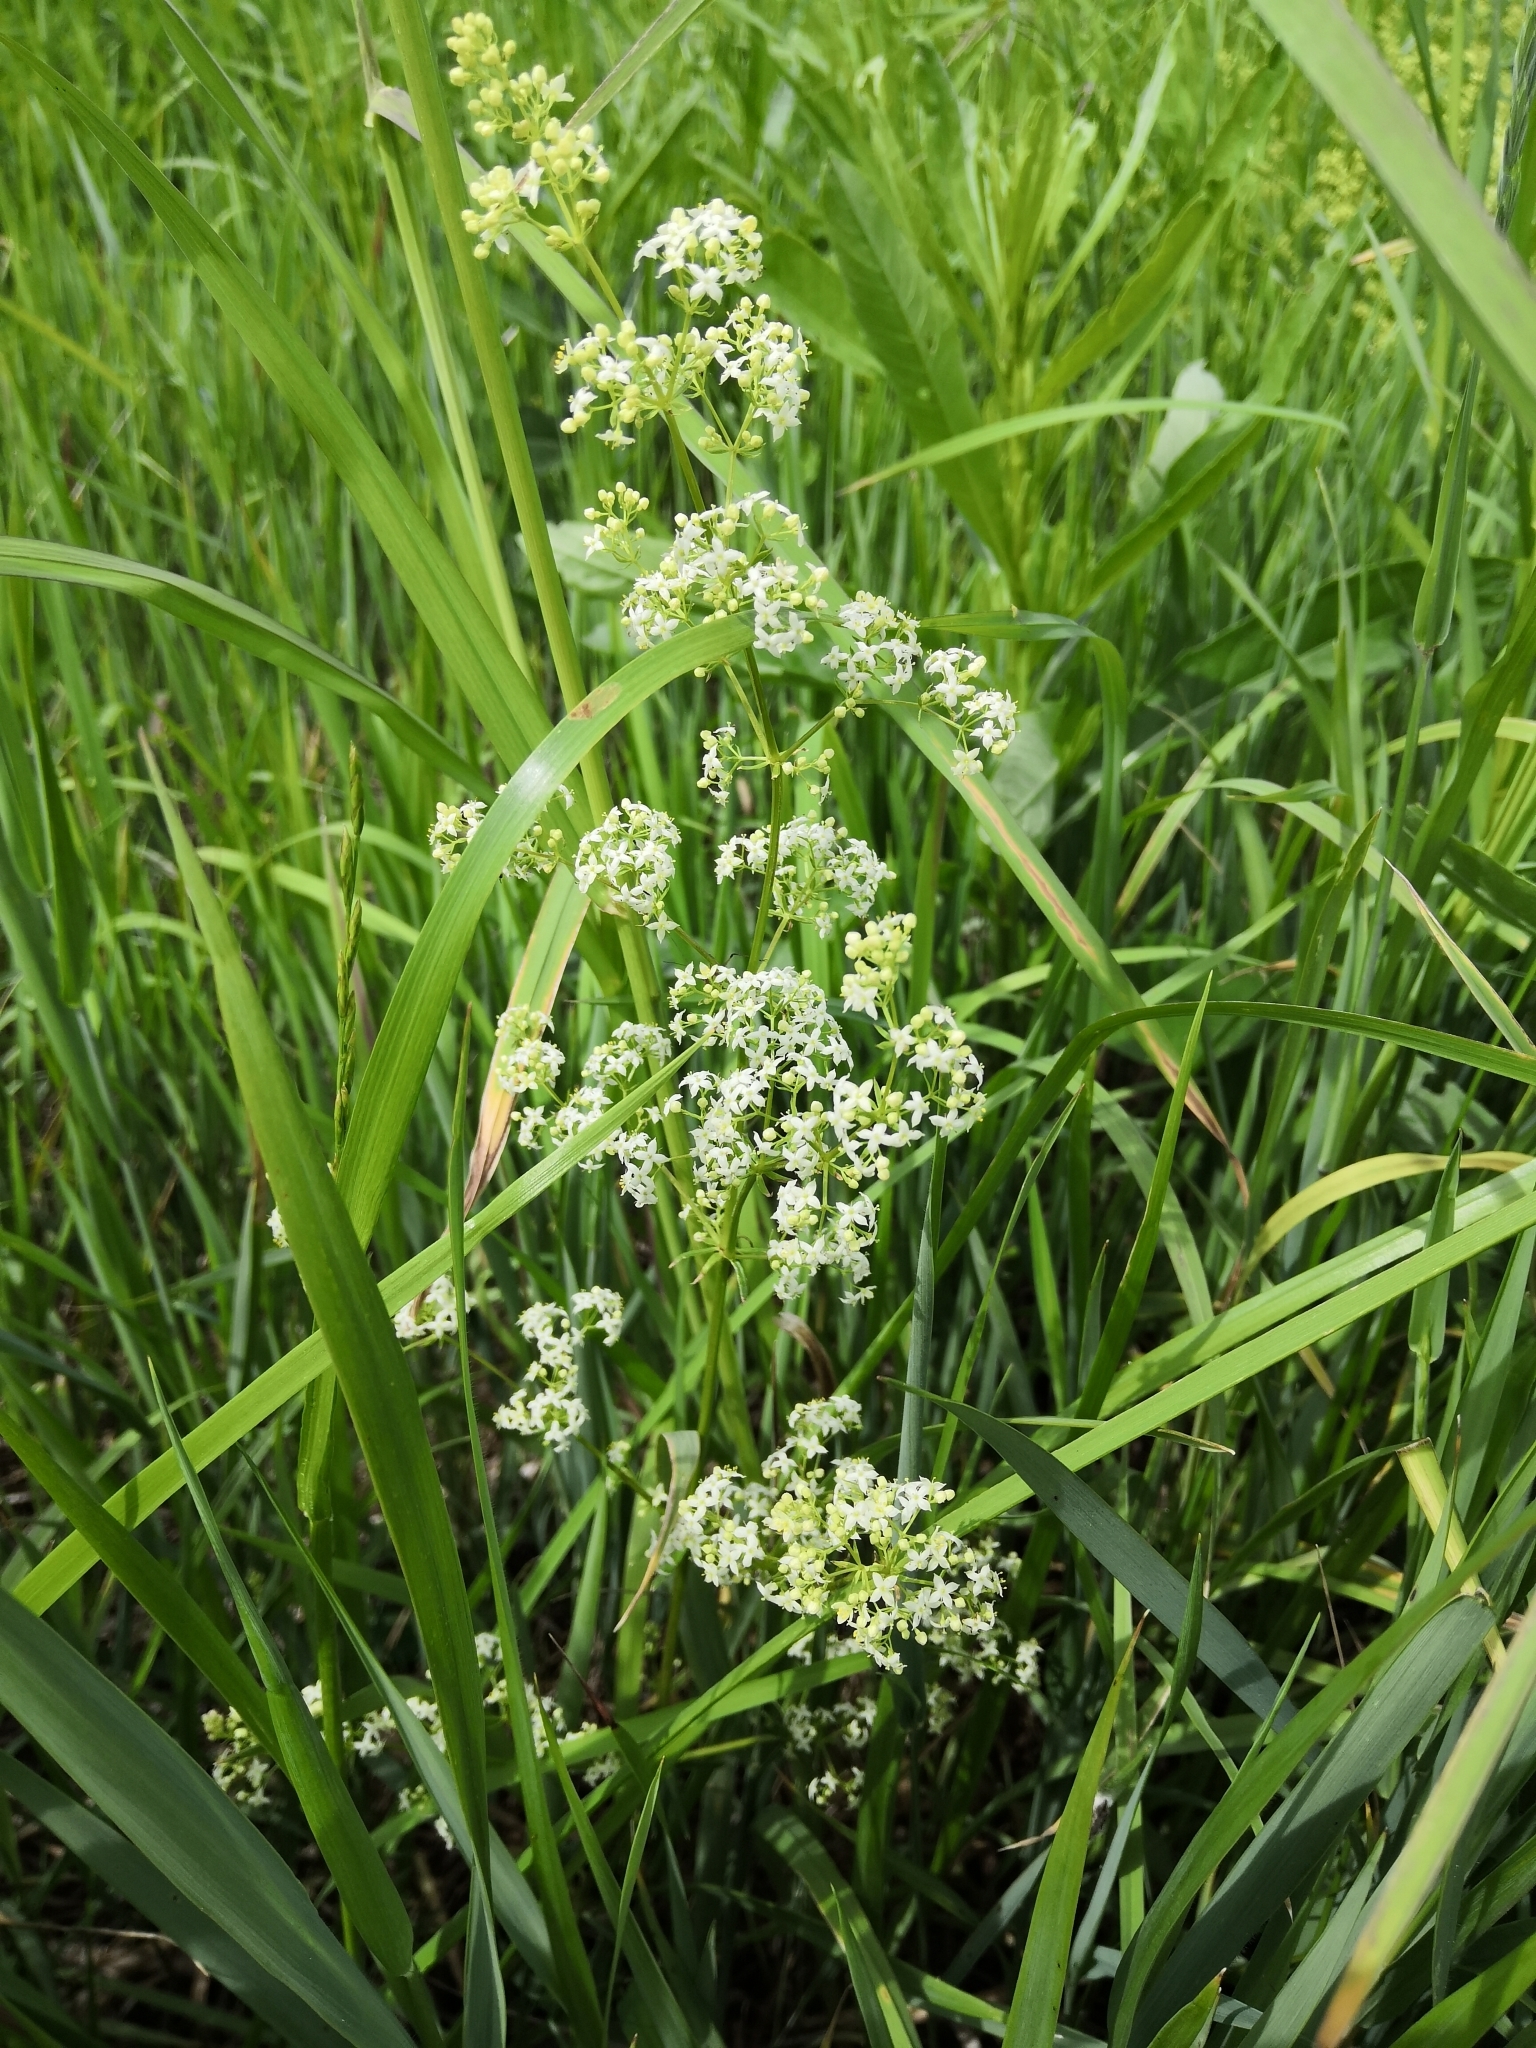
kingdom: Plantae
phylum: Tracheophyta
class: Magnoliopsida
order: Gentianales
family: Rubiaceae
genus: Galium
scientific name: Galium mollugo
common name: Hedge bedstraw
